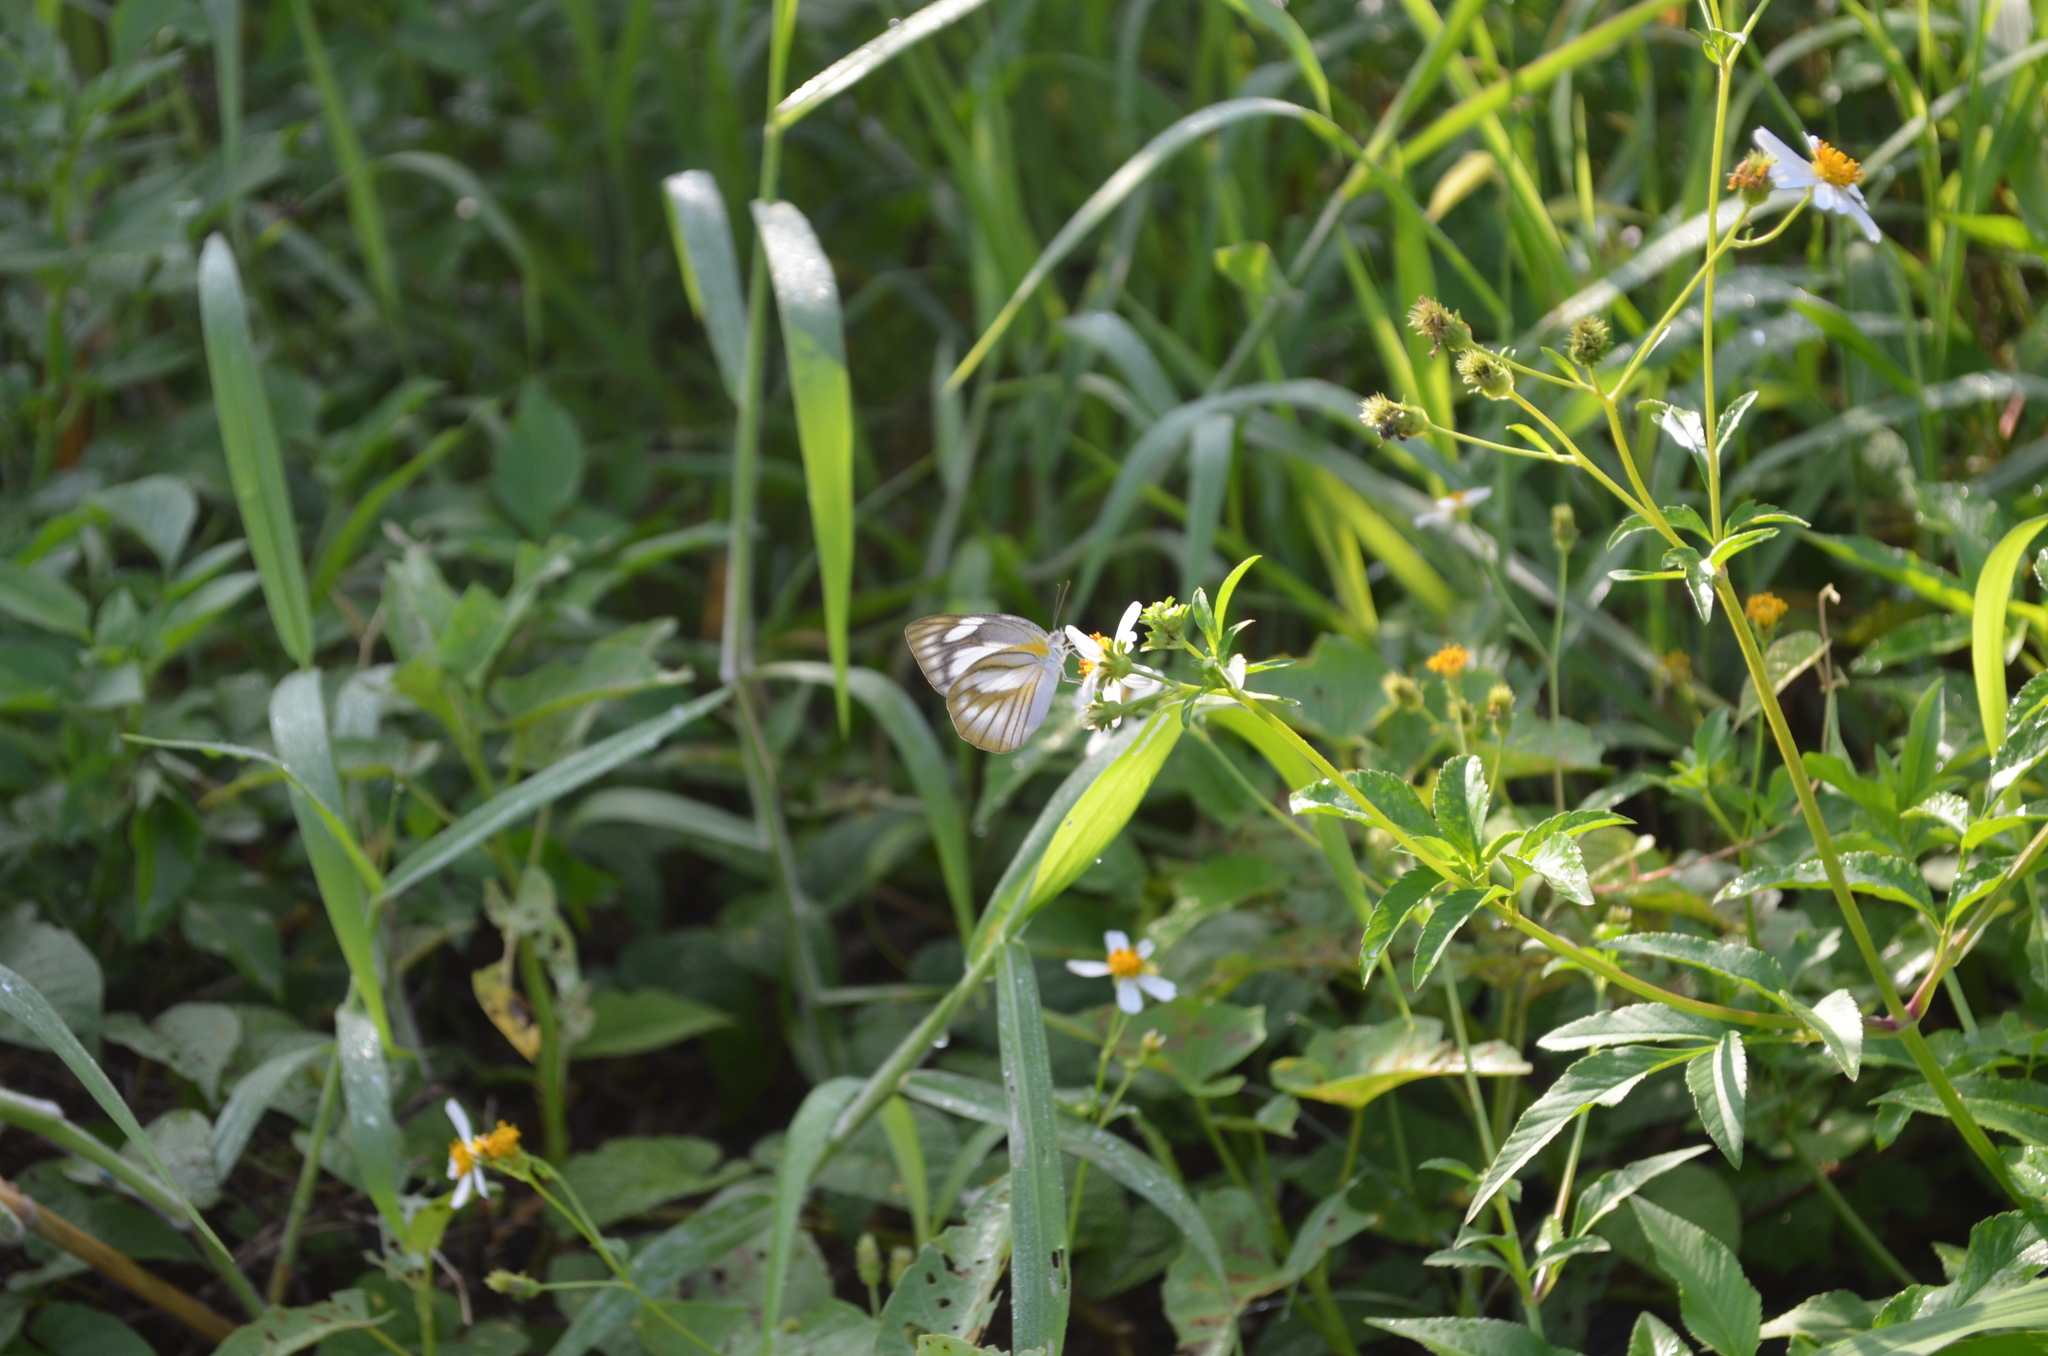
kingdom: Animalia
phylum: Arthropoda
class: Insecta
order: Lepidoptera
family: Pieridae
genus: Appias
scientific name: Appias libythea
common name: Striped albatross
